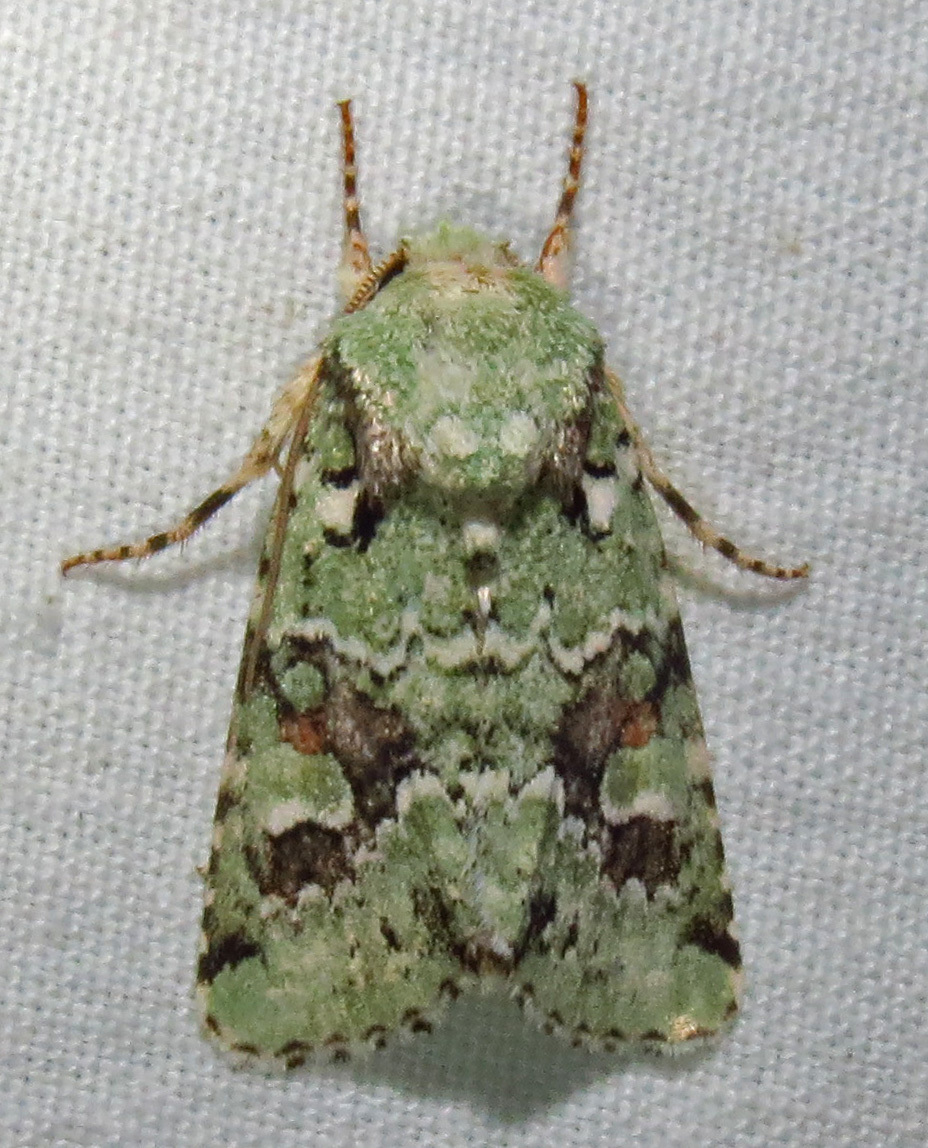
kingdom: Animalia
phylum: Arthropoda
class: Insecta
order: Lepidoptera
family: Noctuidae
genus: Lacinipolia
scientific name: Lacinipolia laudabilis
